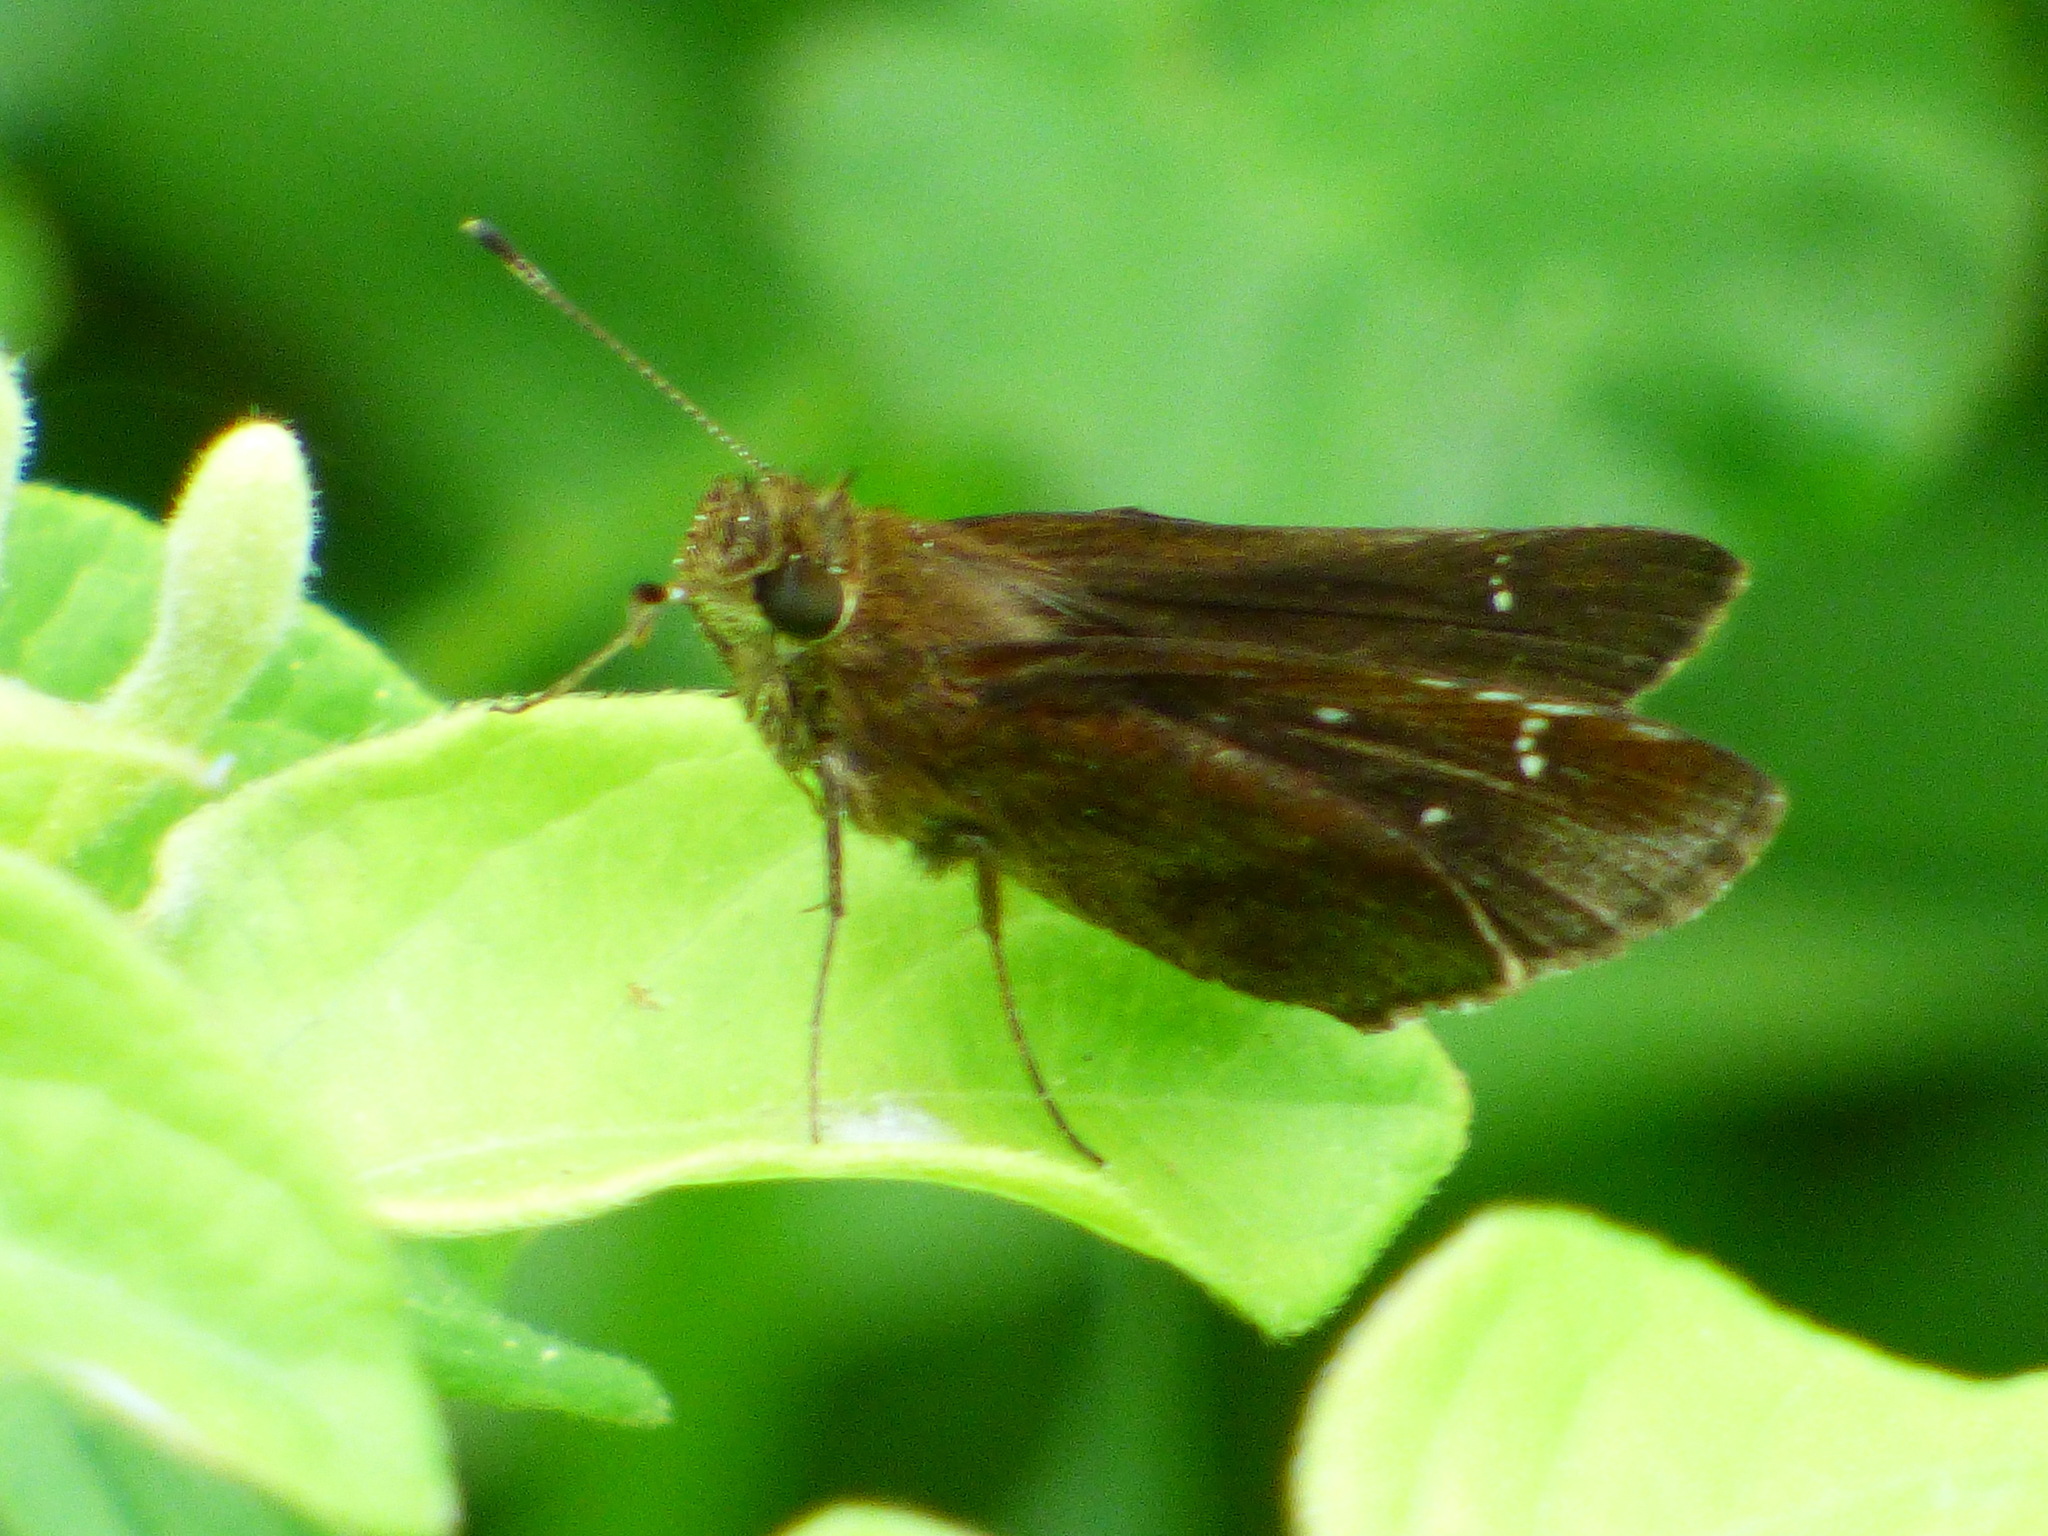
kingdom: Animalia
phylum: Arthropoda
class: Insecta
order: Lepidoptera
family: Hesperiidae
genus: Lerema
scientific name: Lerema accius
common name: Clouded skipper
